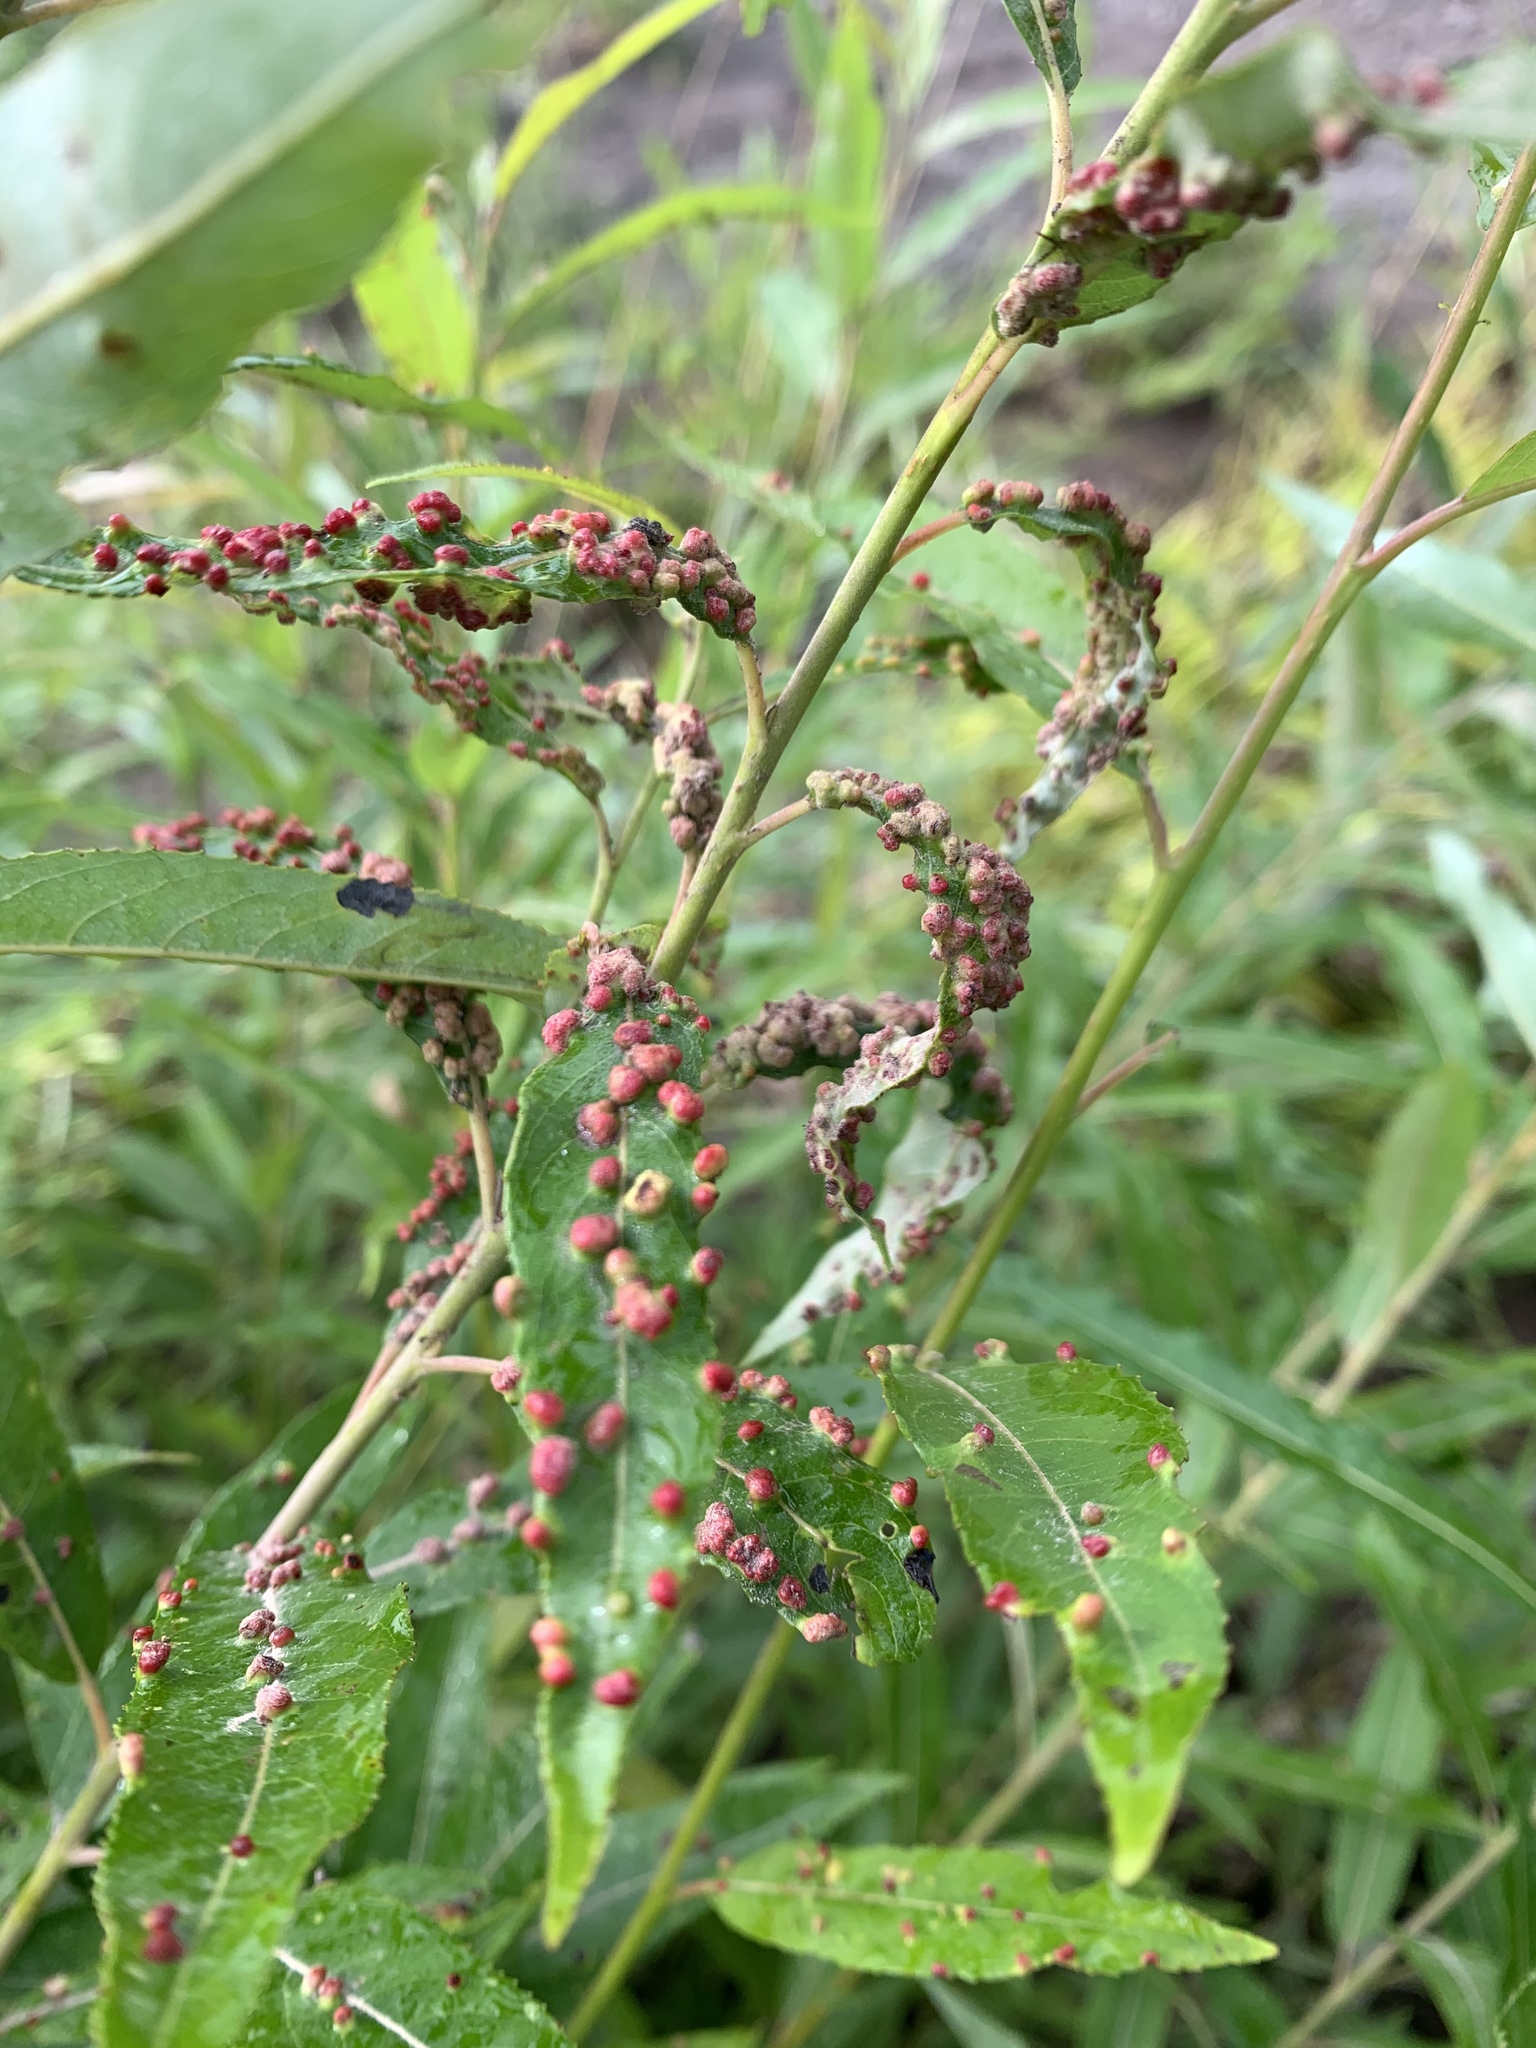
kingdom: Animalia
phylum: Arthropoda
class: Arachnida
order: Trombidiformes
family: Eriophyidae
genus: Aculus
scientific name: Aculus tetanothrix
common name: Willow bead gall mite
